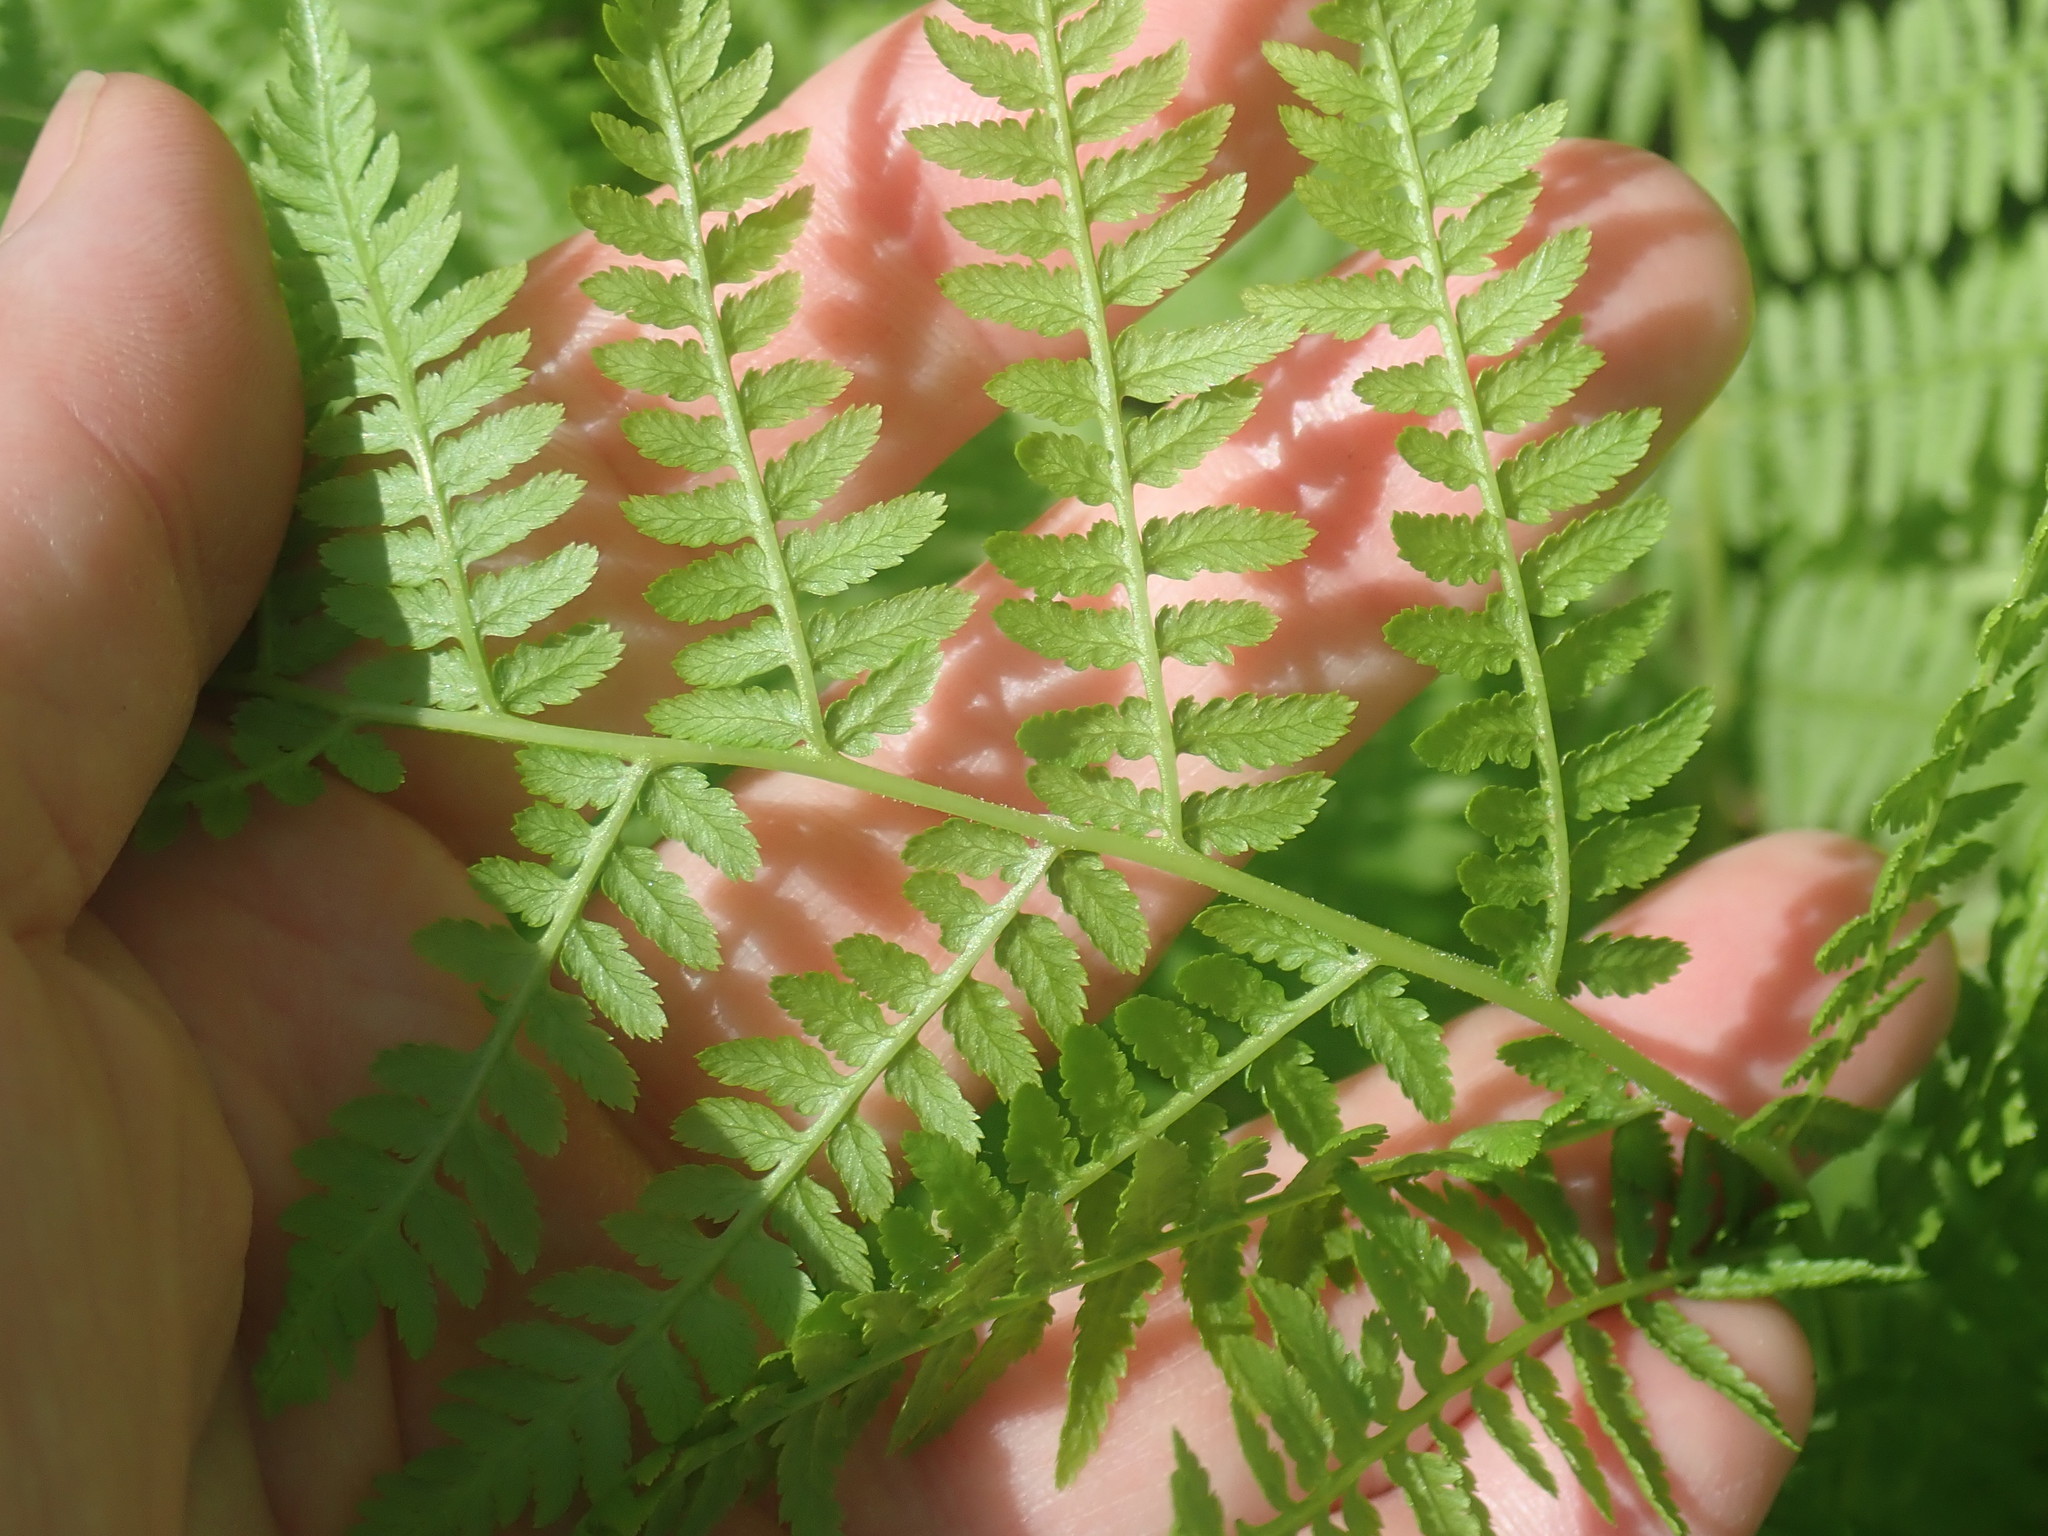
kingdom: Plantae
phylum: Tracheophyta
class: Polypodiopsida
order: Polypodiales
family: Athyriaceae
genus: Athyrium
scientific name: Athyrium angustum
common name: Northern lady fern
